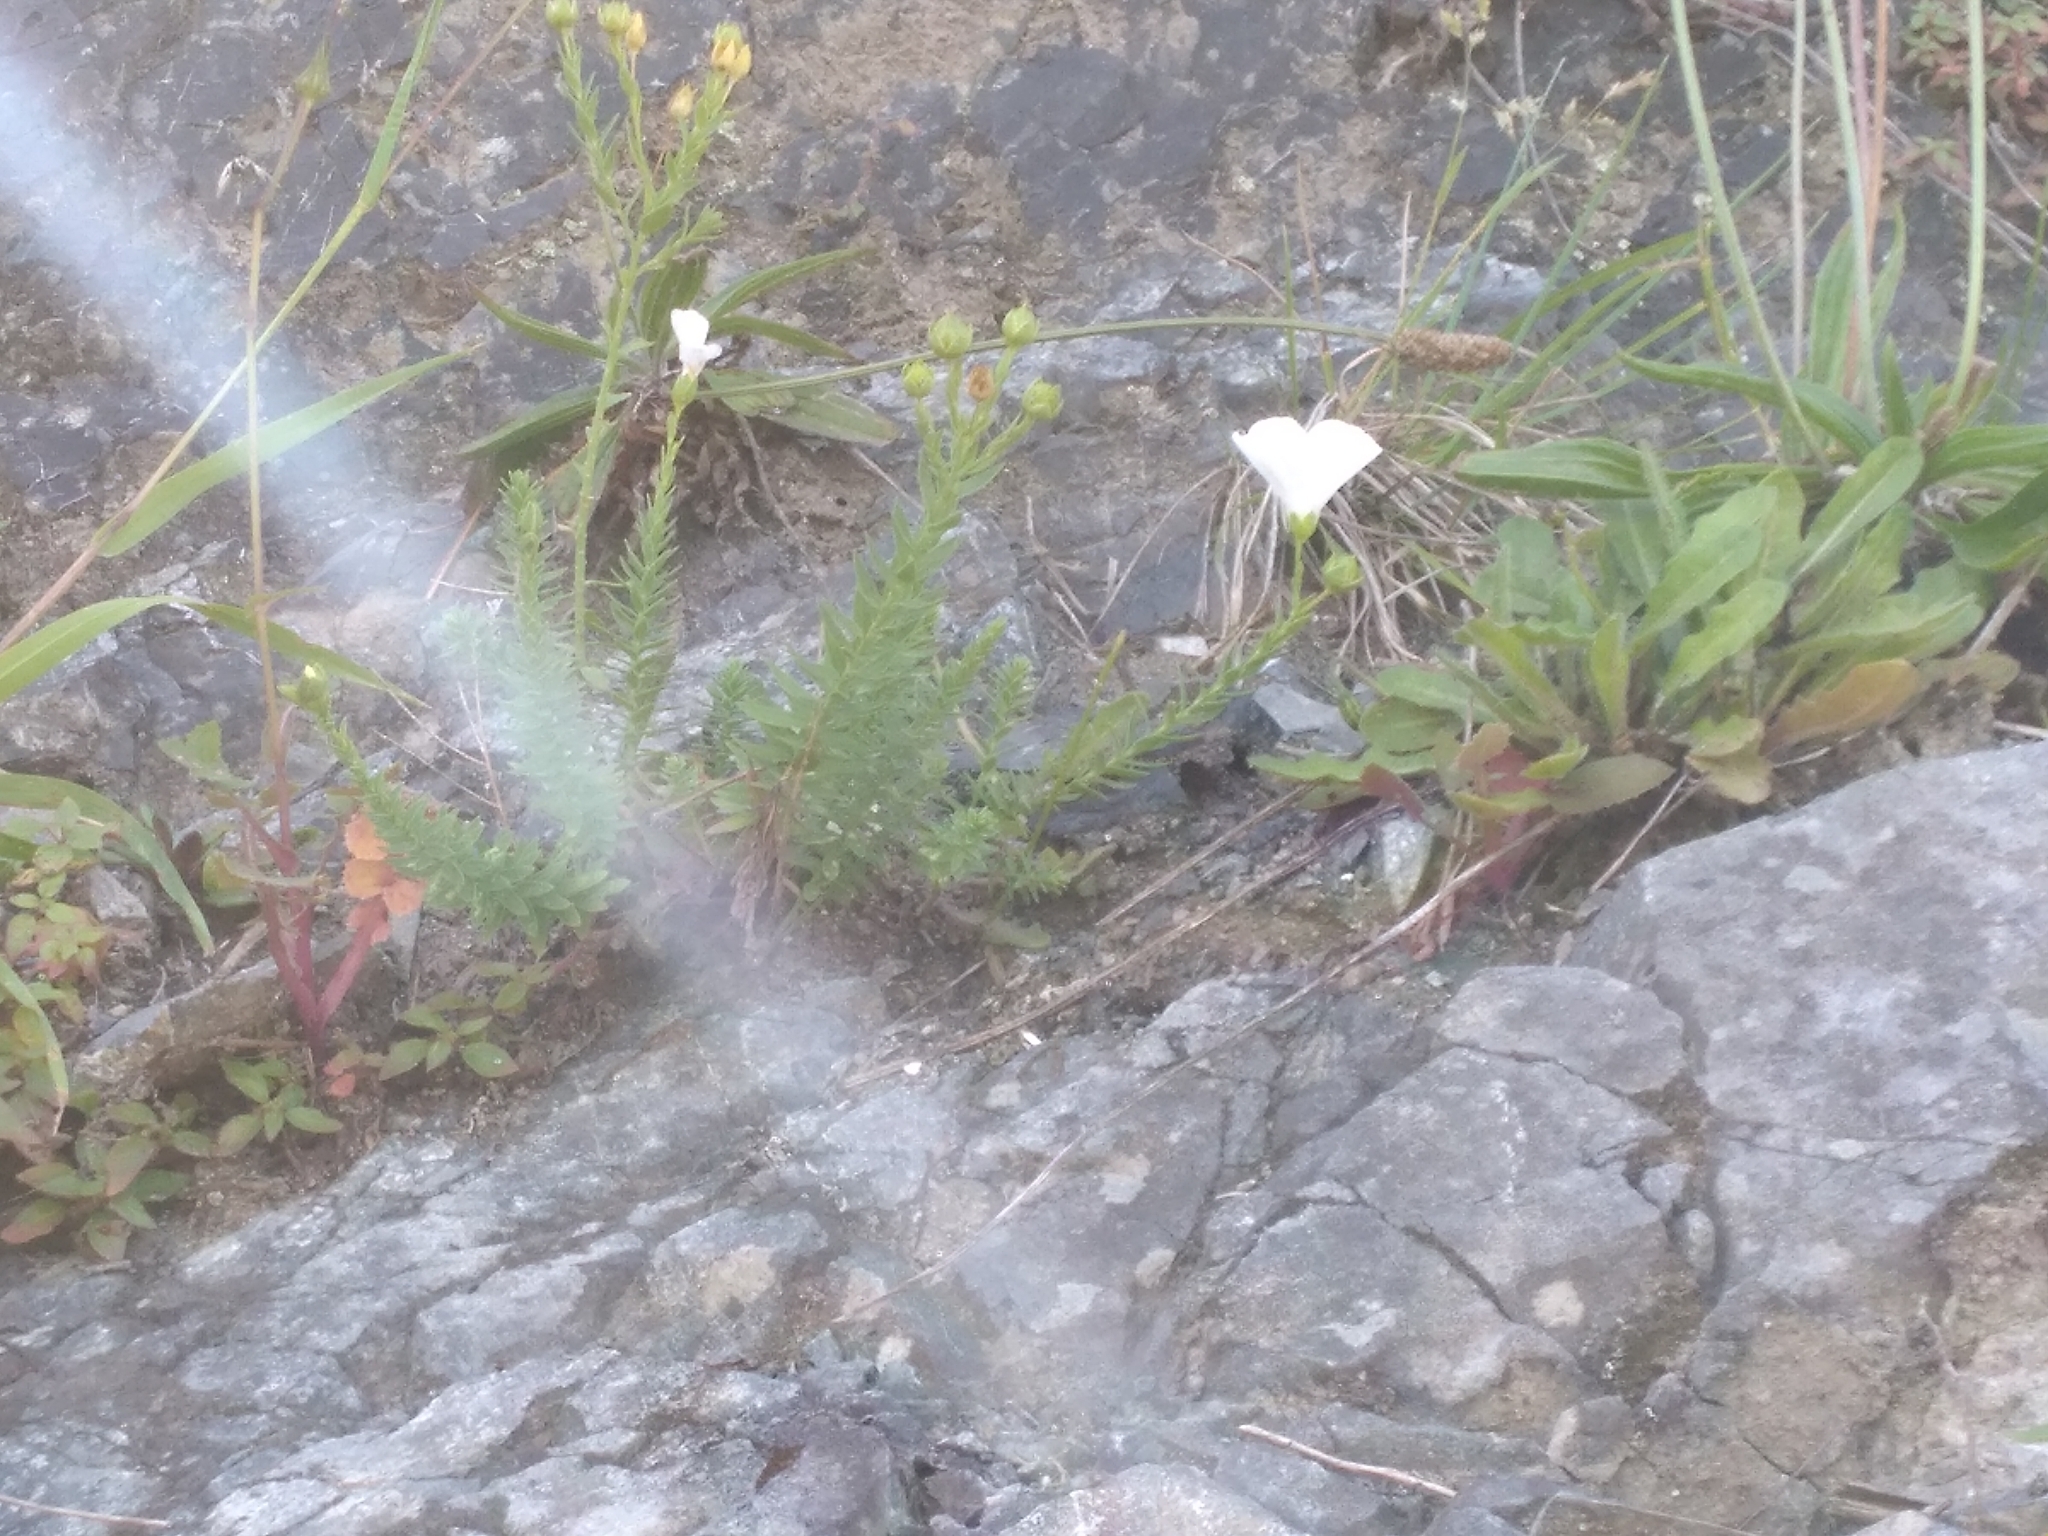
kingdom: Plantae
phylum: Tracheophyta
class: Magnoliopsida
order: Malpighiales
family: Linaceae
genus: Linum
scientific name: Linum monogynum
